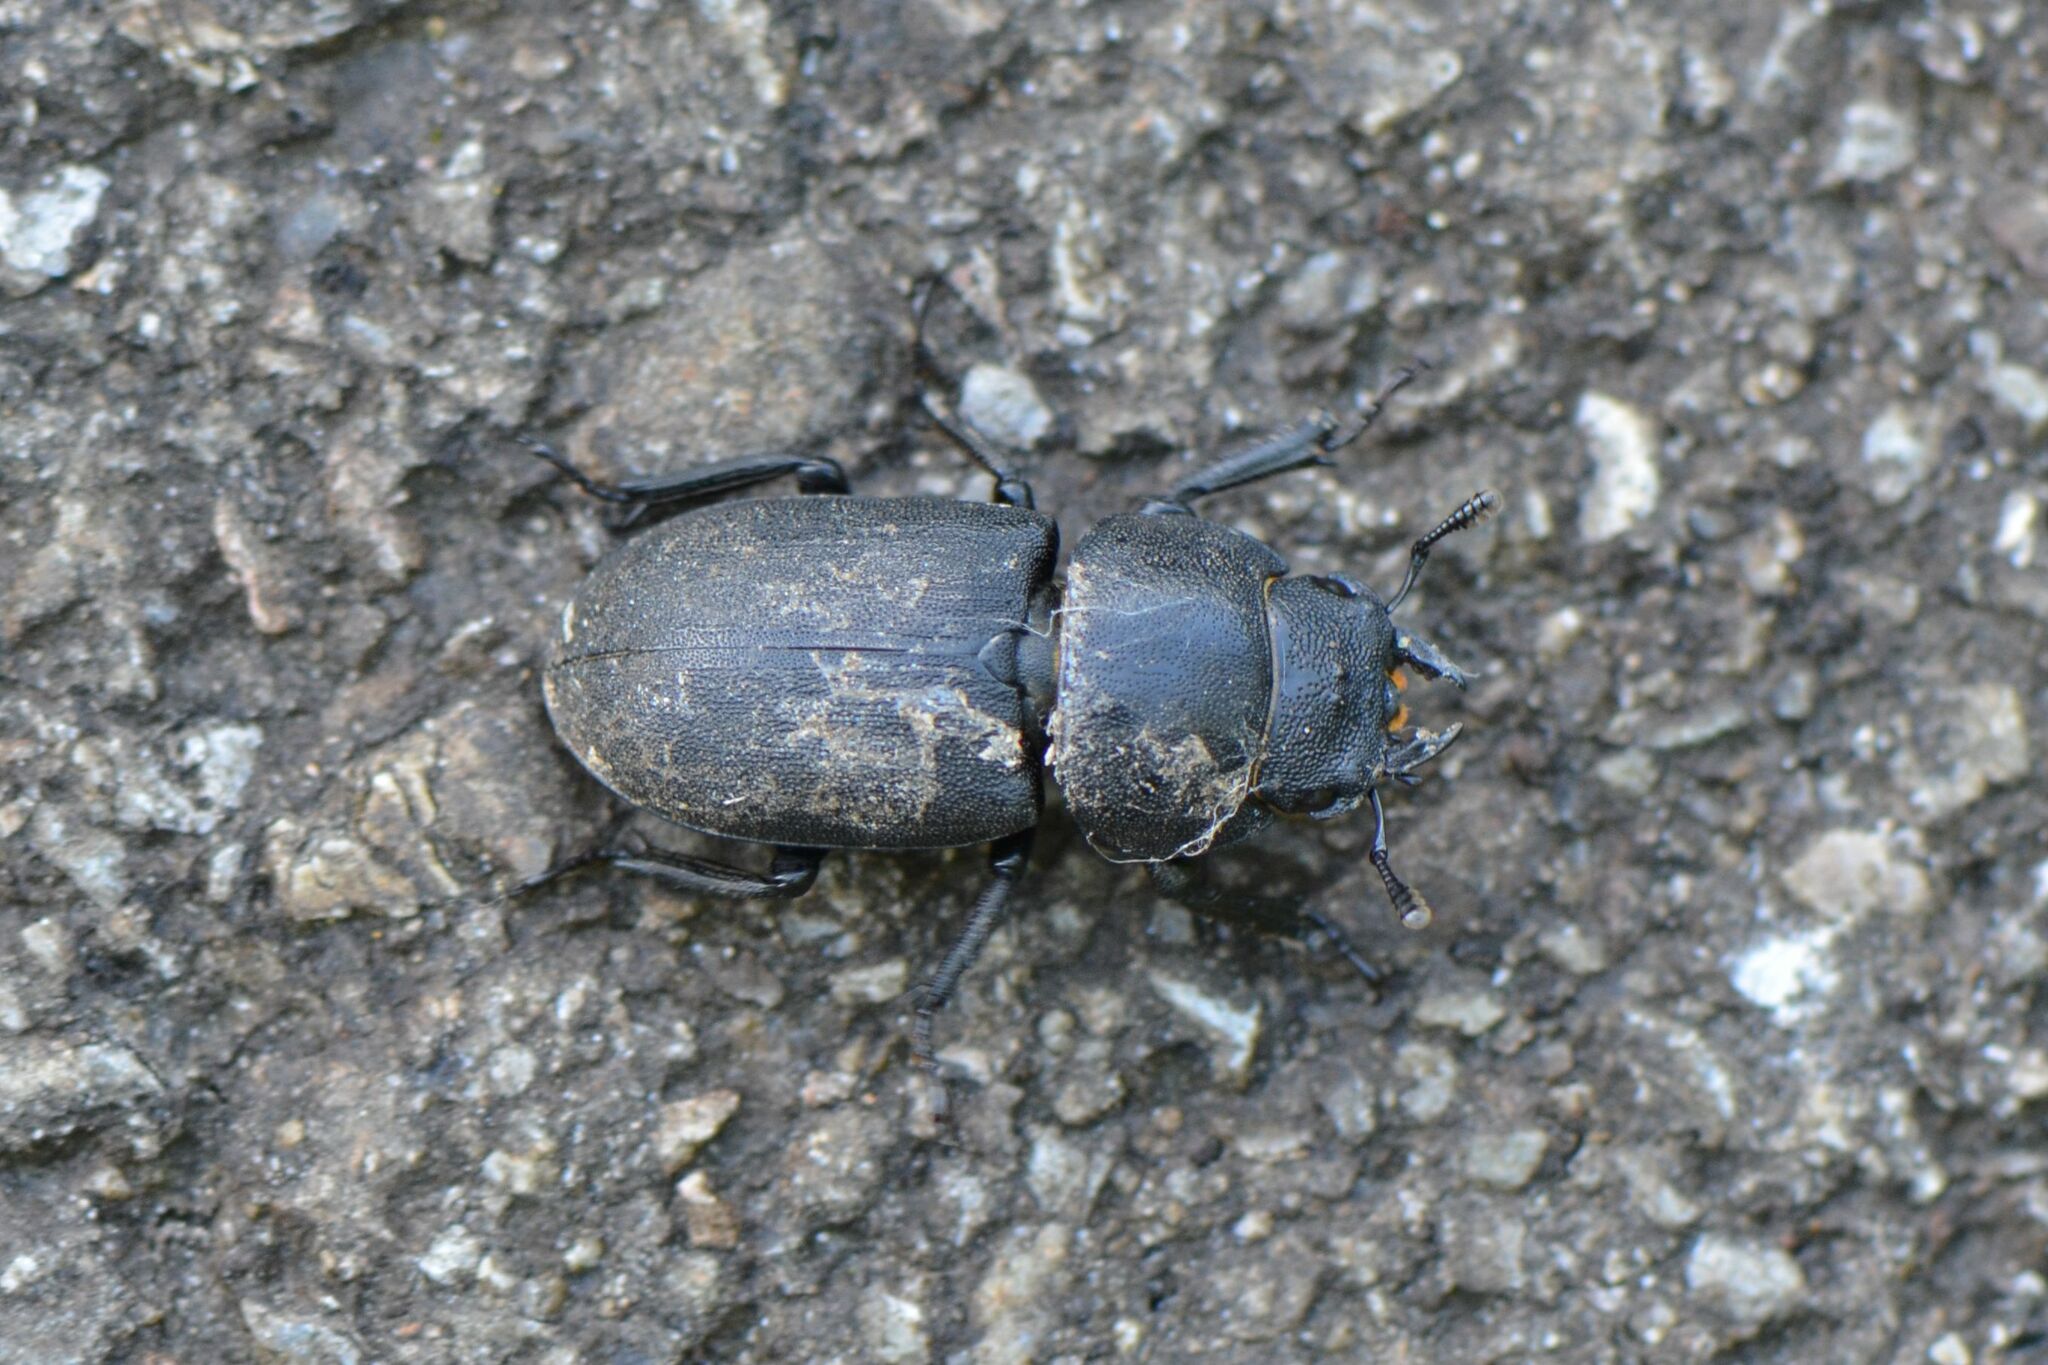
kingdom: Animalia
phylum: Arthropoda
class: Insecta
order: Coleoptera
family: Lucanidae
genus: Dorcus
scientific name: Dorcus parallelipipedus
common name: Lesser stag beetle
